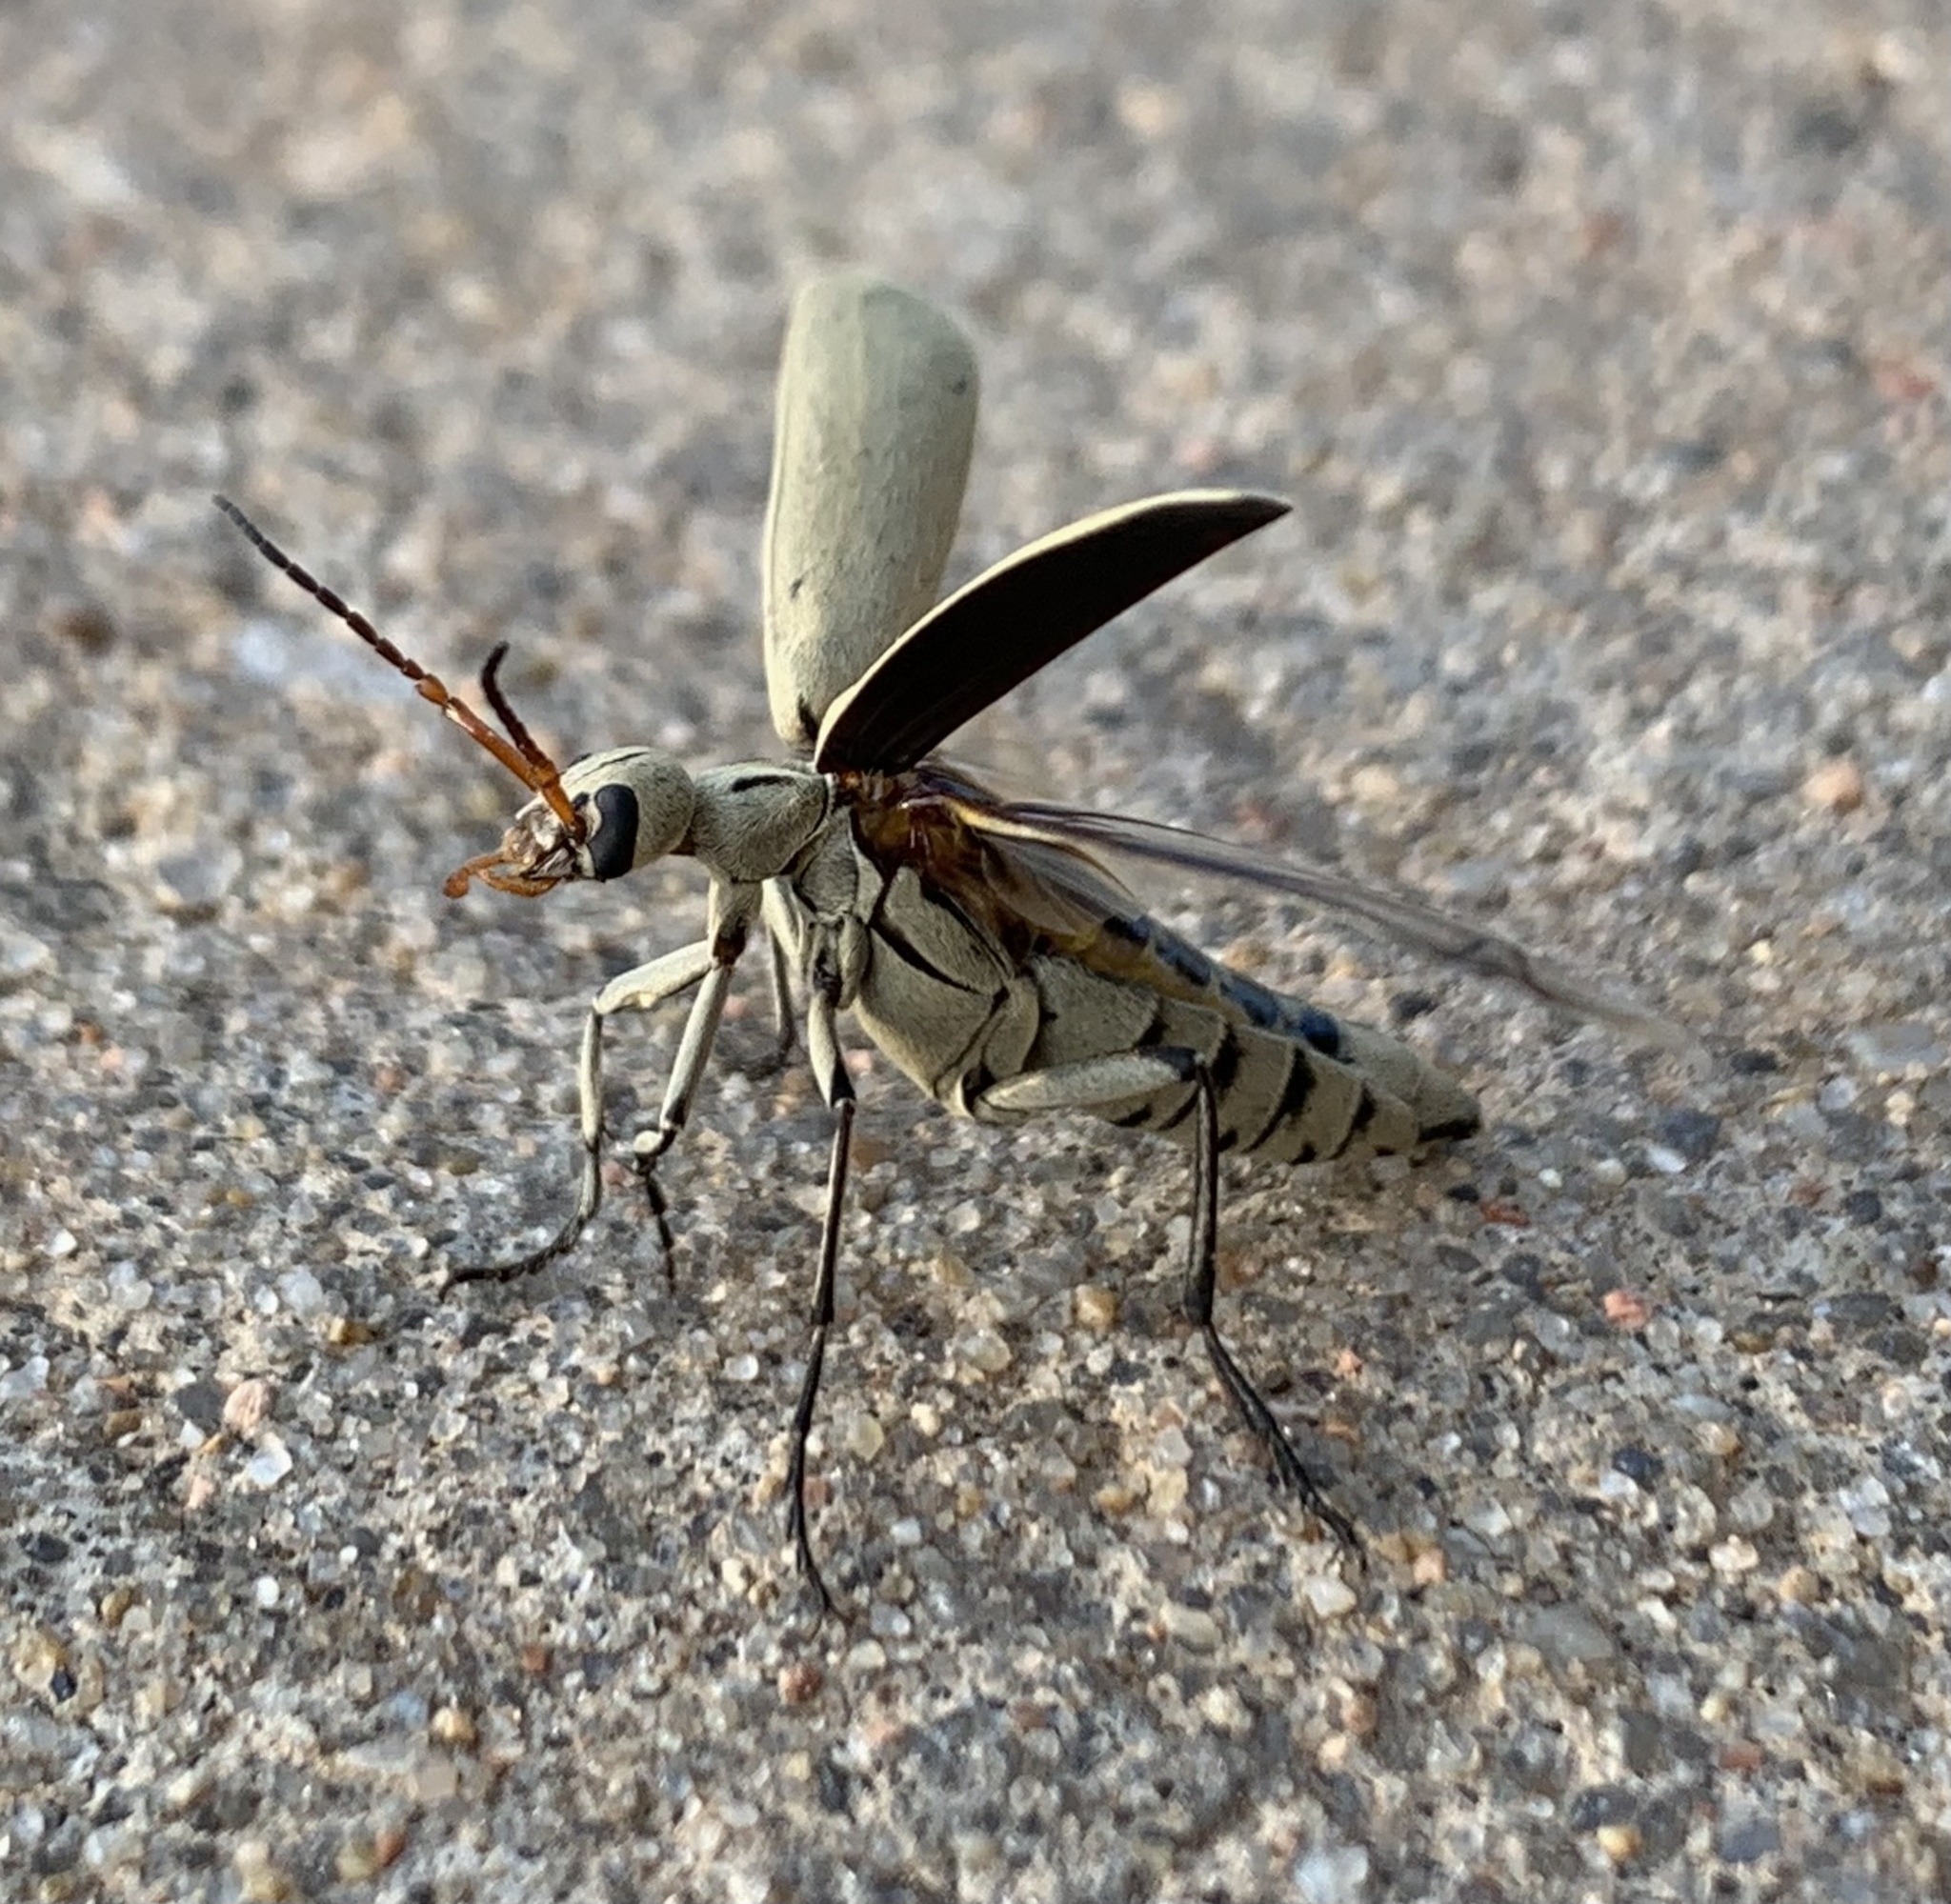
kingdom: Animalia
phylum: Arthropoda
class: Insecta
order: Coleoptera
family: Meloidae
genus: Epicauta
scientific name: Epicauta albida
